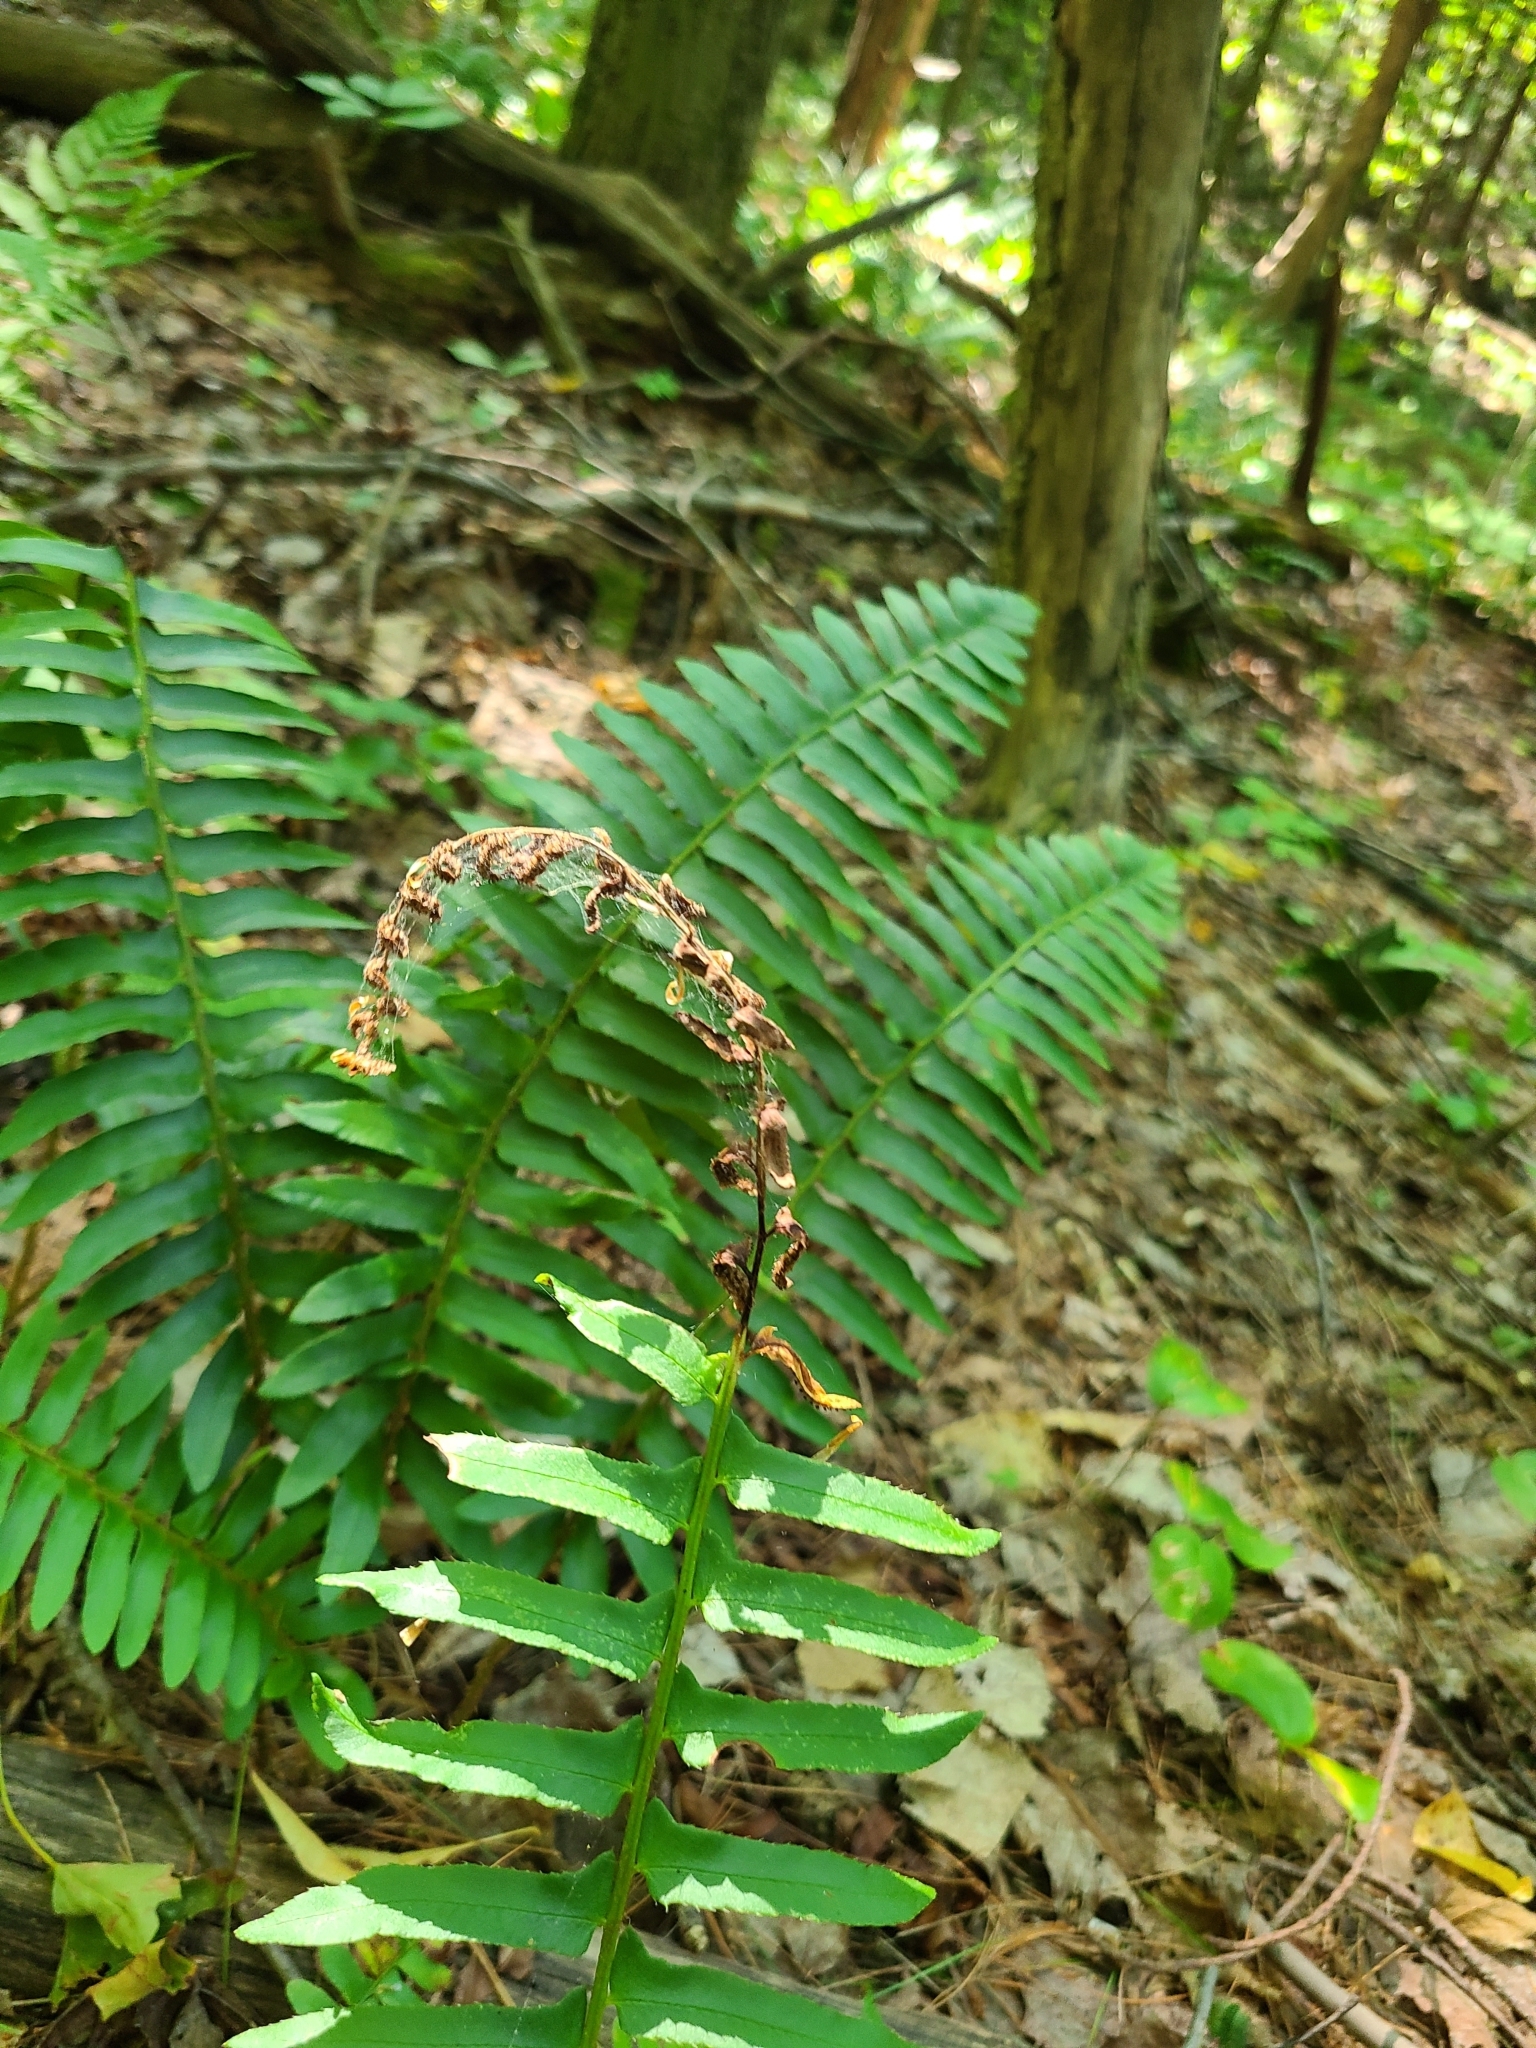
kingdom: Plantae
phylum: Tracheophyta
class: Polypodiopsida
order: Polypodiales
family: Dryopteridaceae
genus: Polystichum
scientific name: Polystichum acrostichoides
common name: Christmas fern
